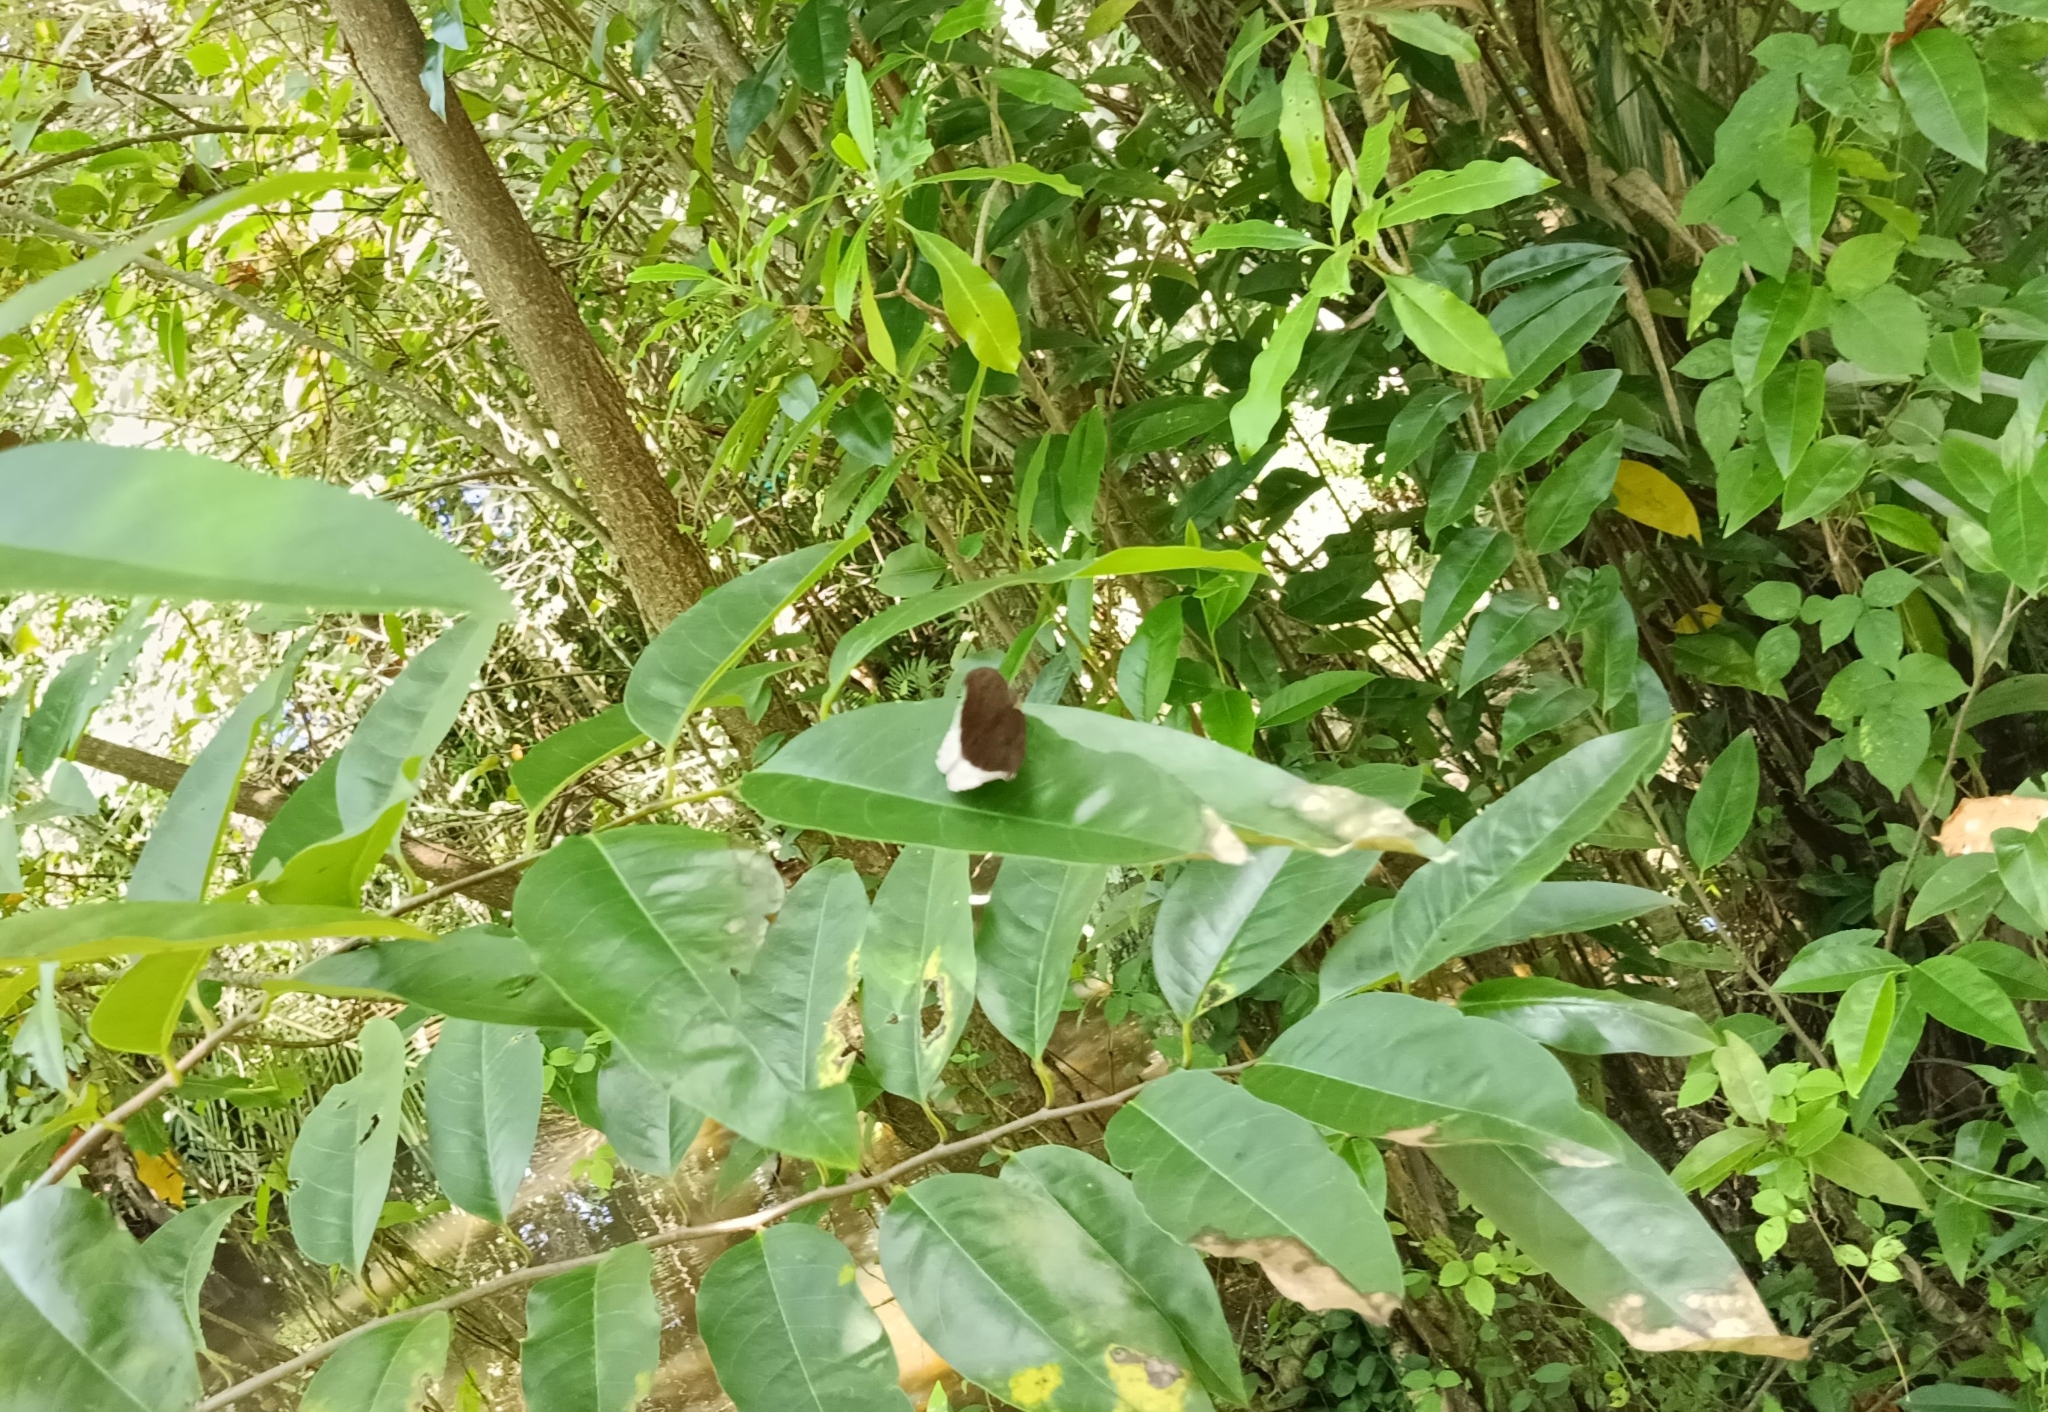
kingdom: Animalia
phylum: Arthropoda
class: Insecta
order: Lepidoptera
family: Nymphalidae
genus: Tanaecia
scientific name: Tanaecia lepidea
